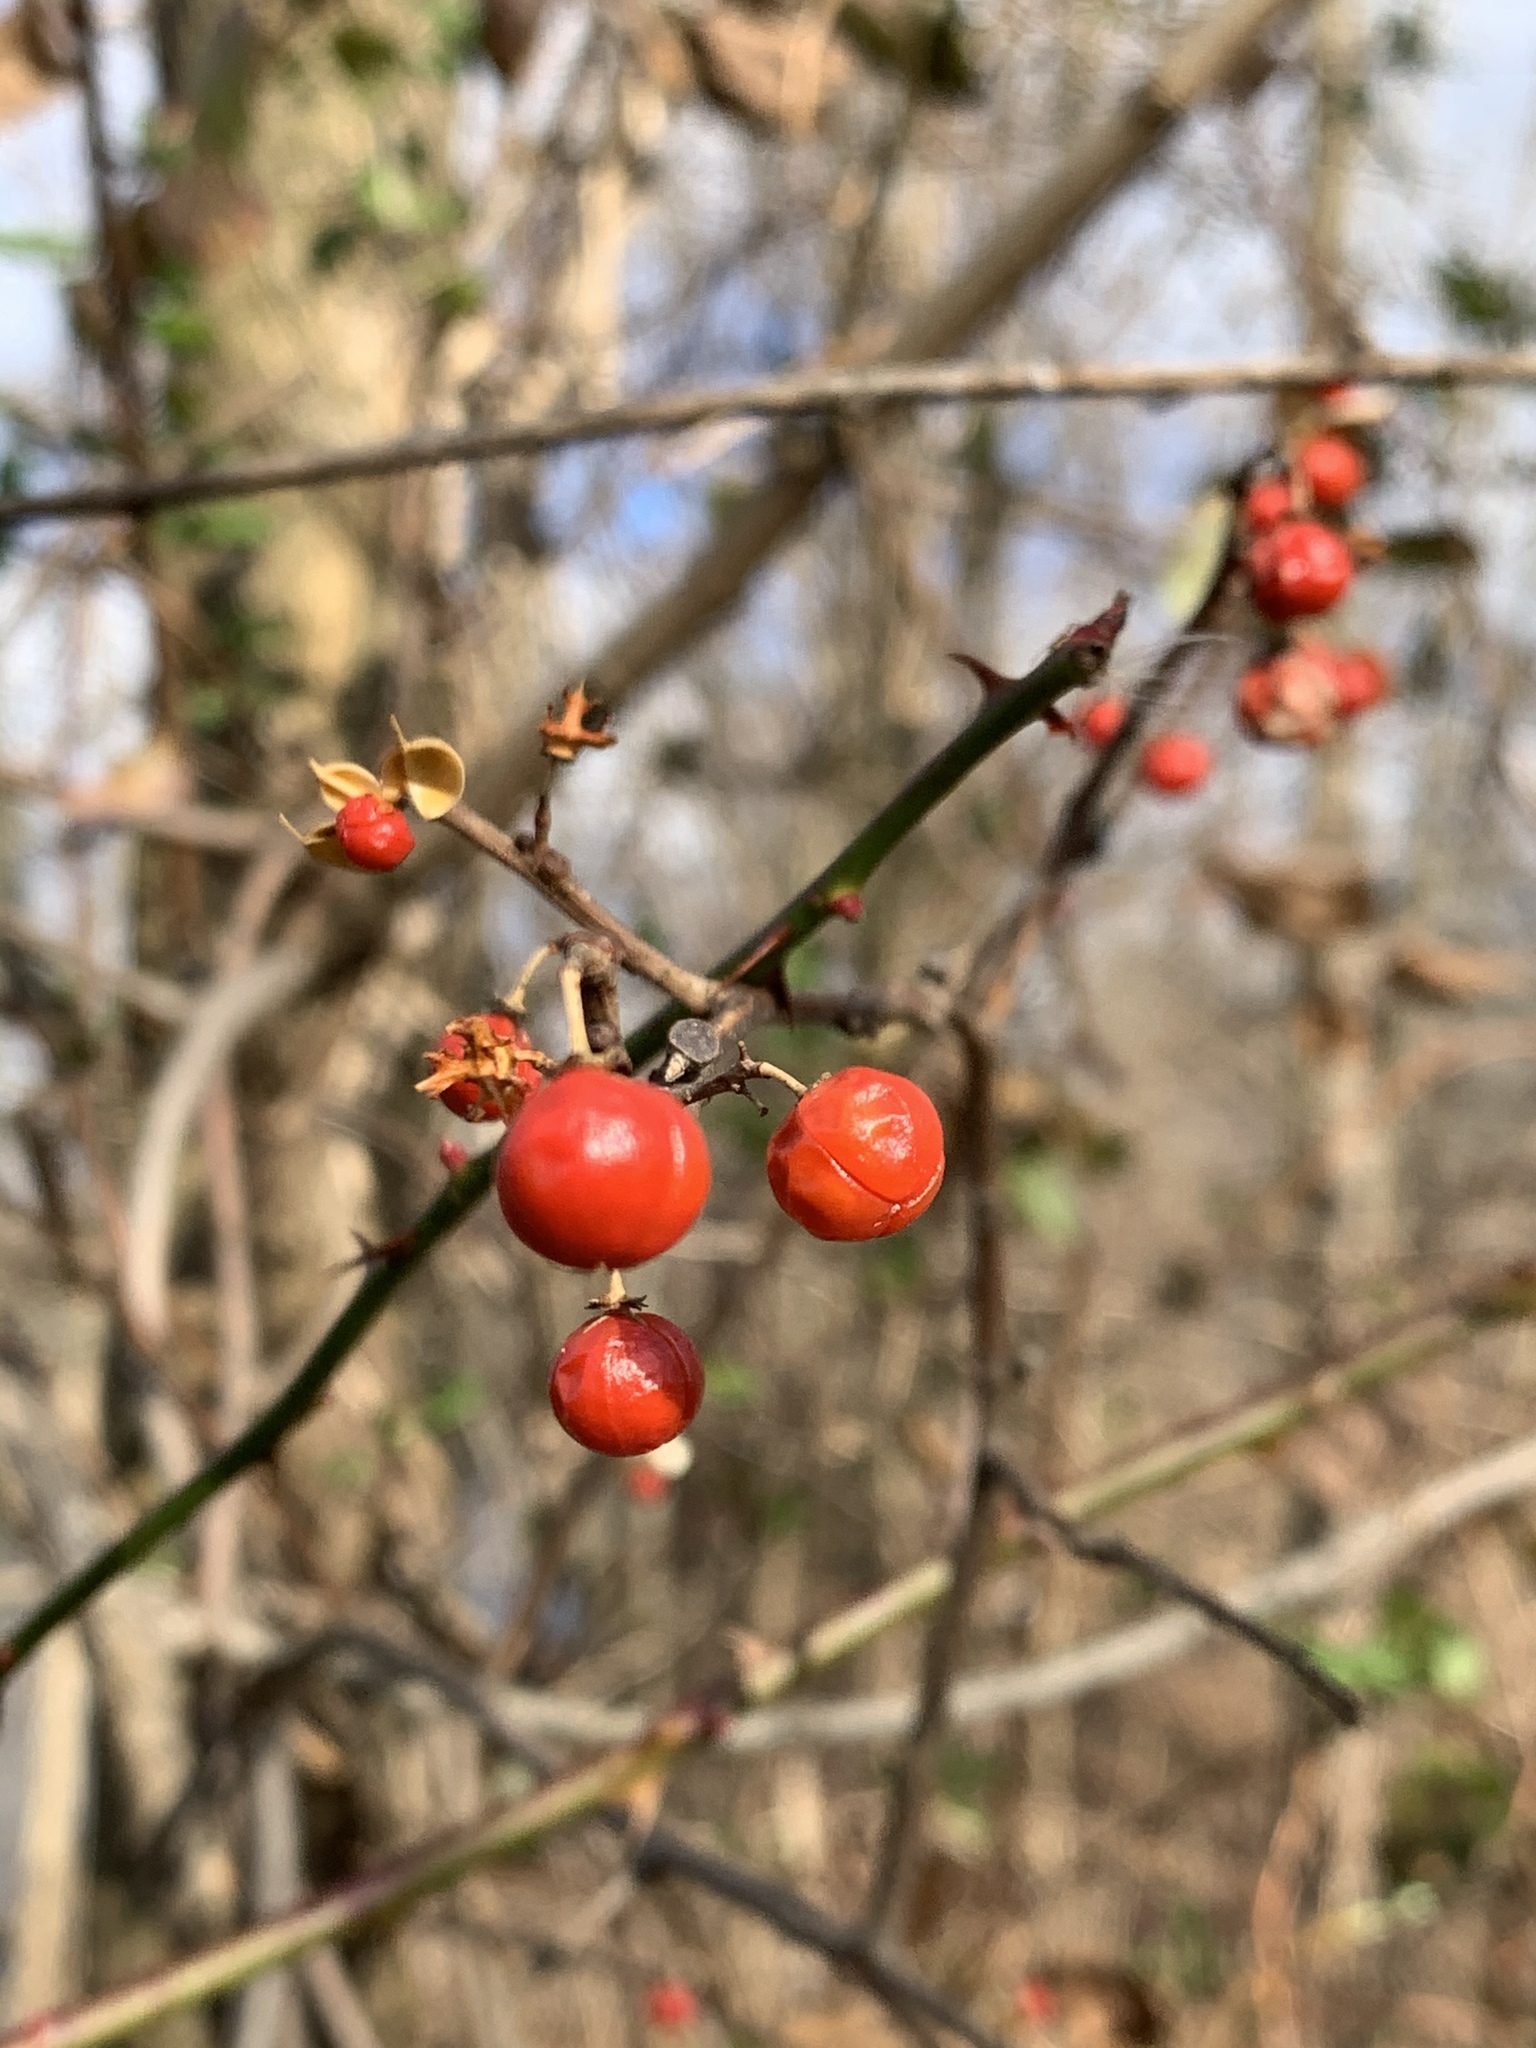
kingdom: Plantae
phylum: Tracheophyta
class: Magnoliopsida
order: Celastrales
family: Celastraceae
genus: Celastrus
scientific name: Celastrus orbiculatus
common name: Oriental bittersweet
